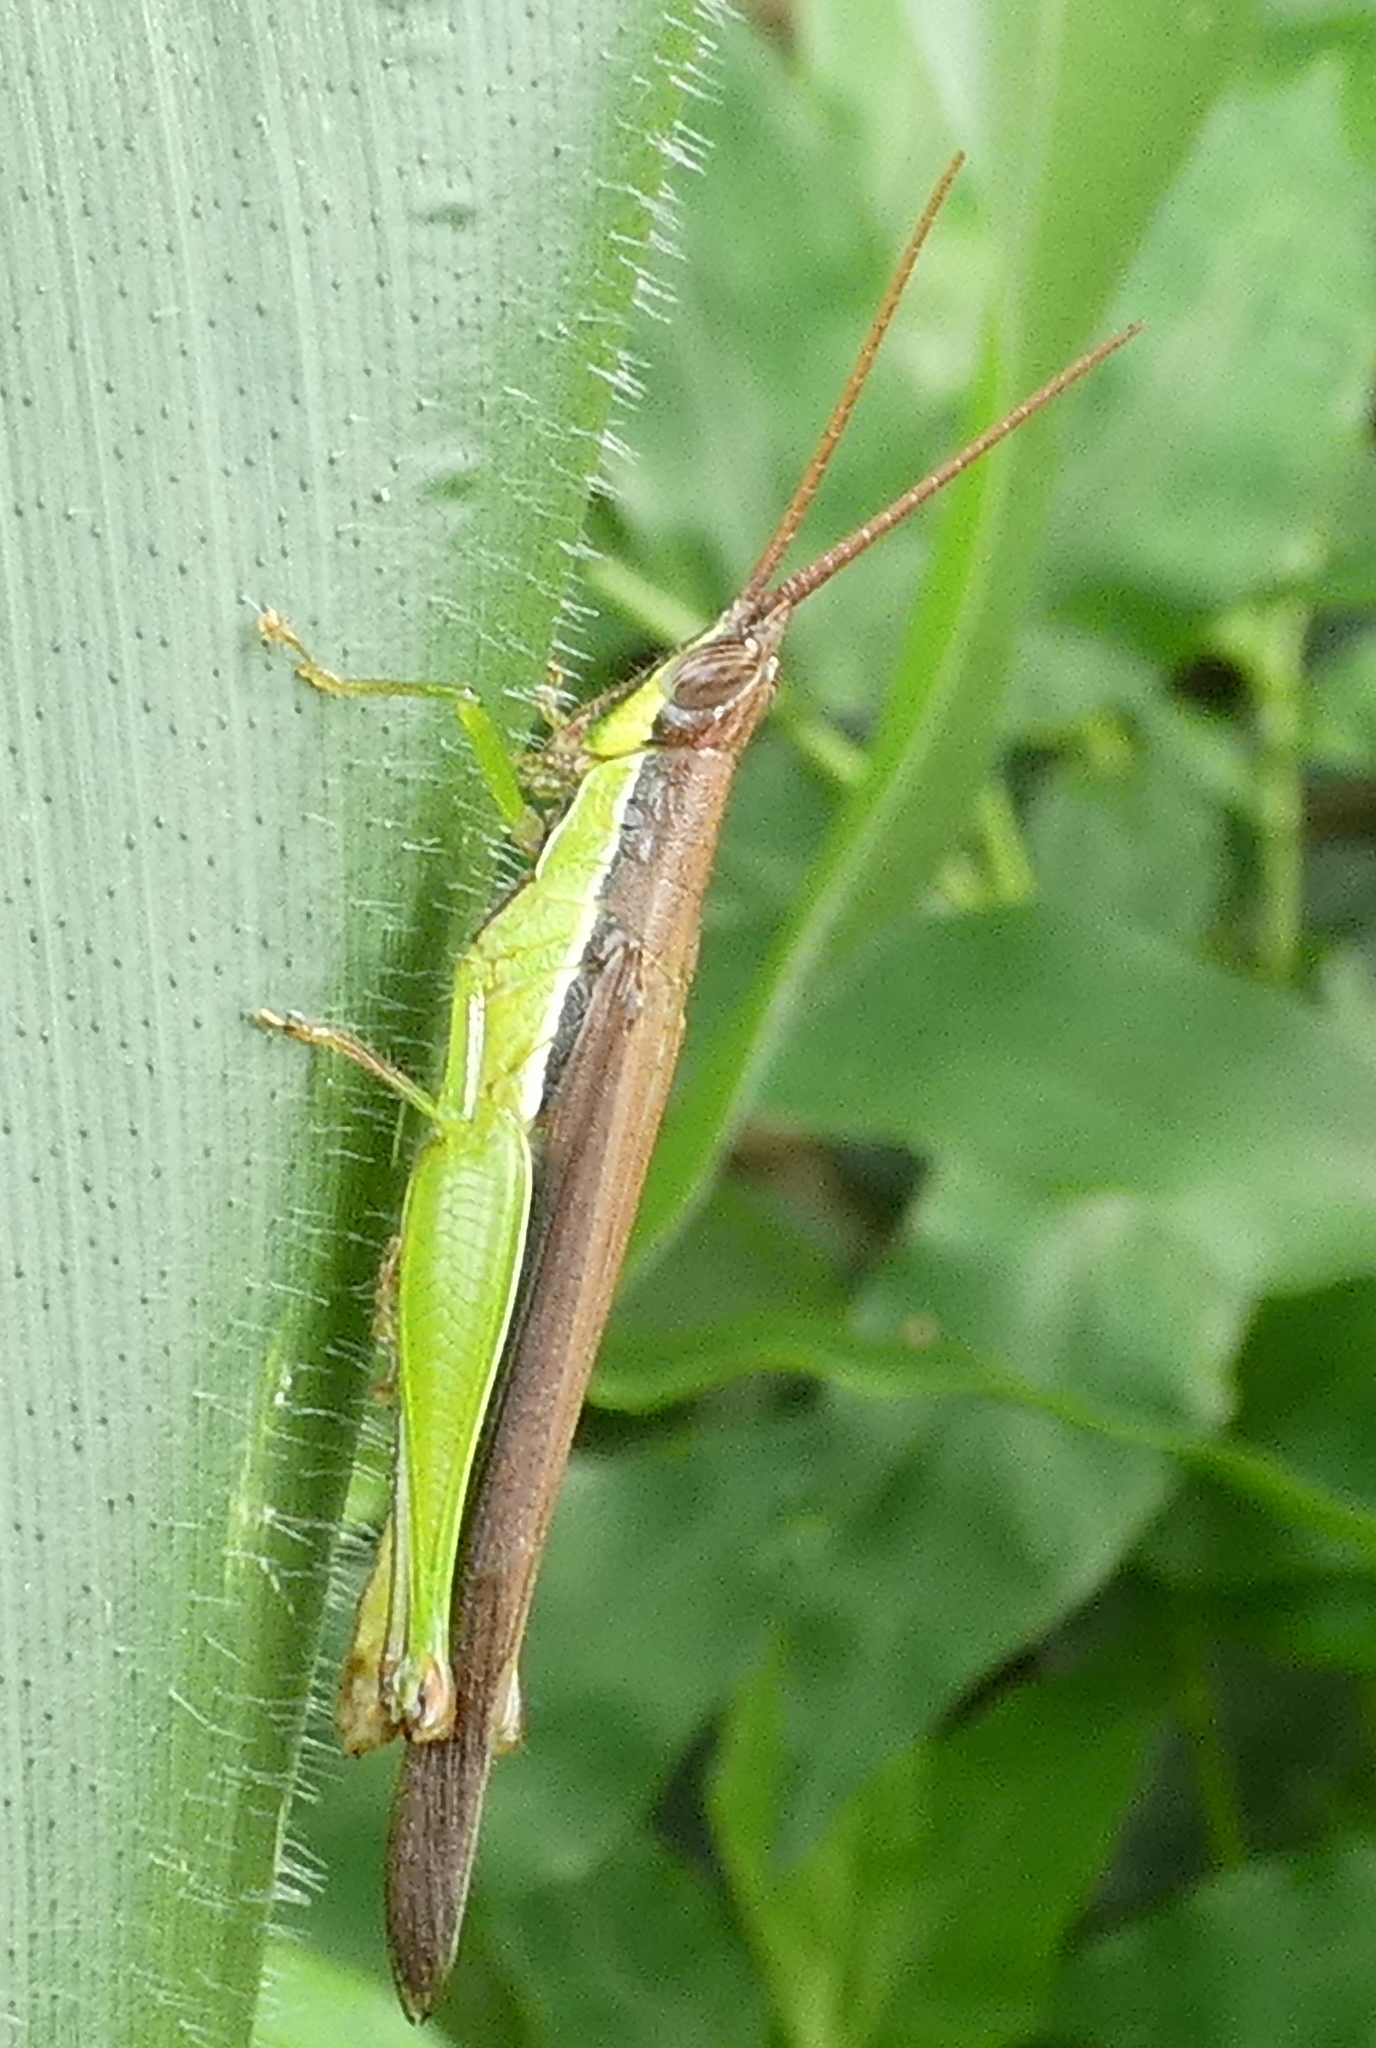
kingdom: Animalia
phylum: Arthropoda
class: Insecta
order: Orthoptera
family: Acrididae
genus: Stenopola
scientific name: Stenopola dorsalis
